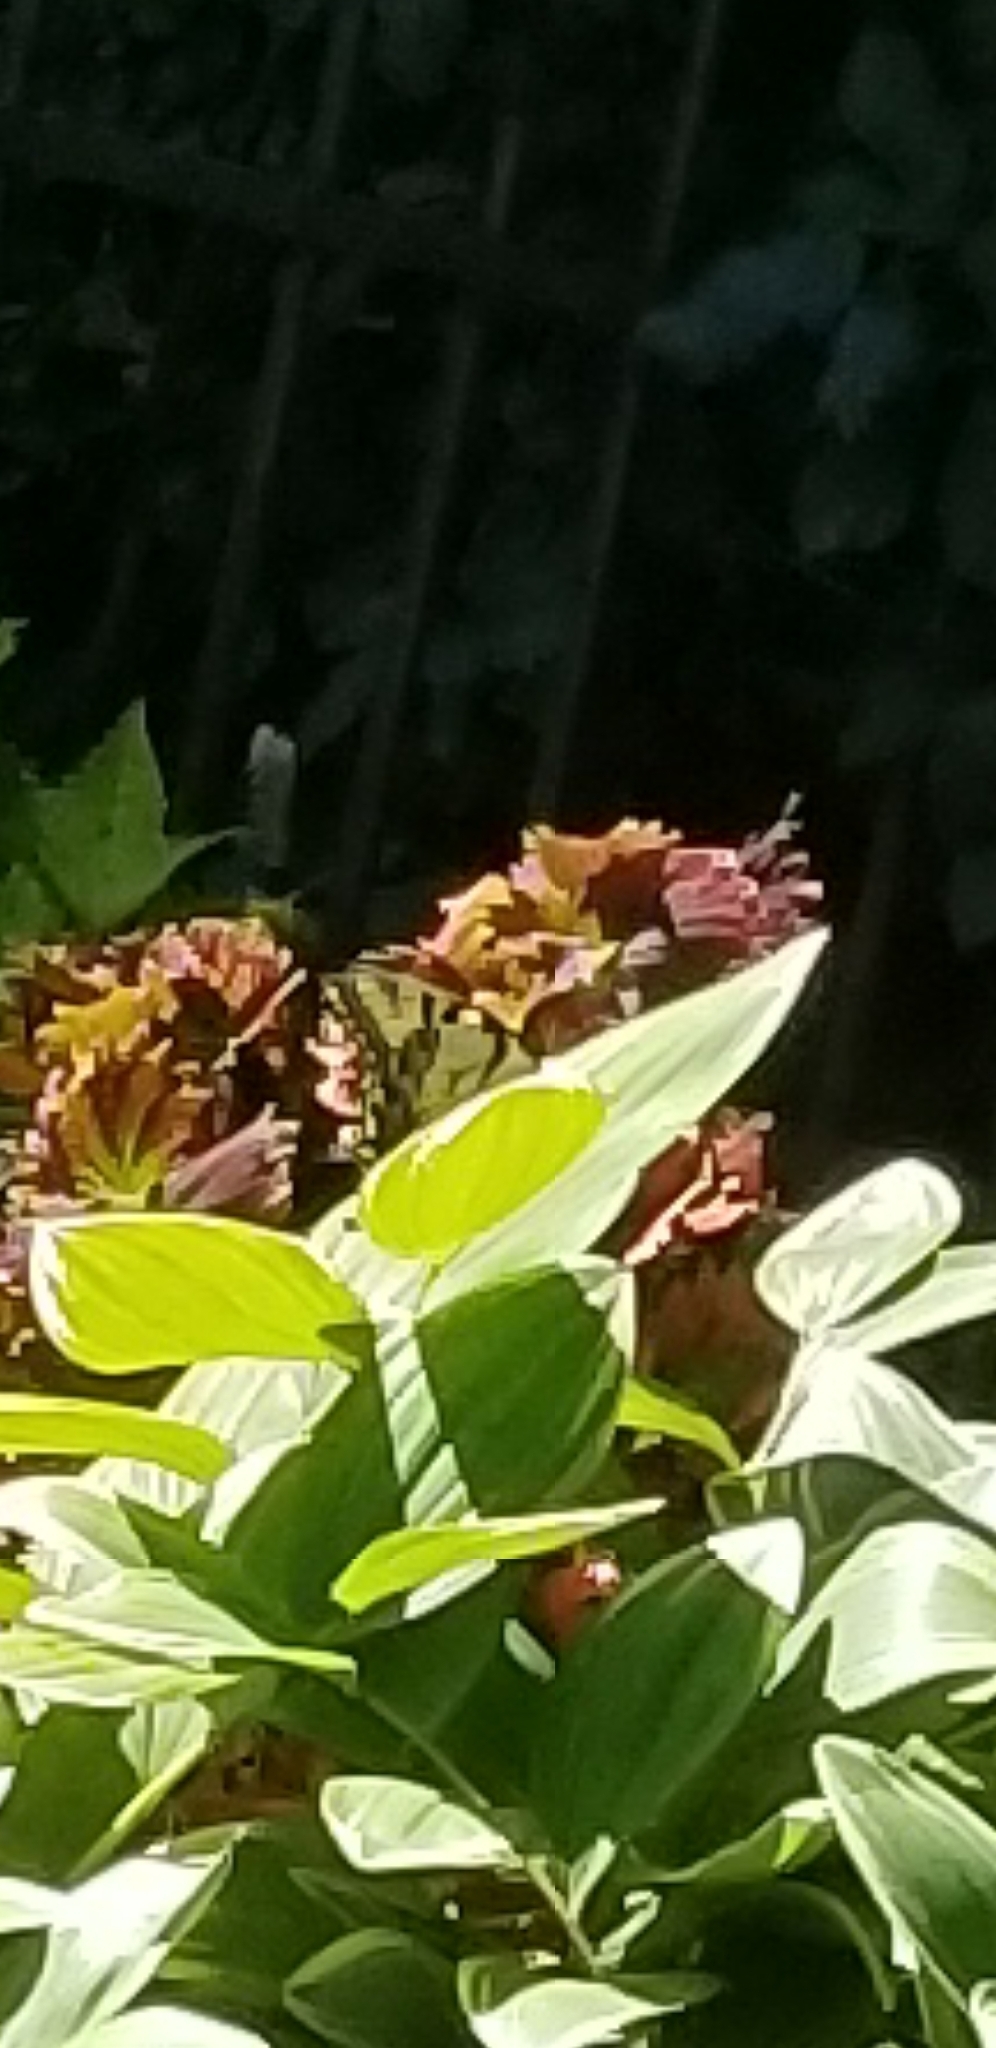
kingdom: Animalia
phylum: Arthropoda
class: Insecta
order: Lepidoptera
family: Papilionidae
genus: Papilio
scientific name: Papilio glaucus
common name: Tiger swallowtail
